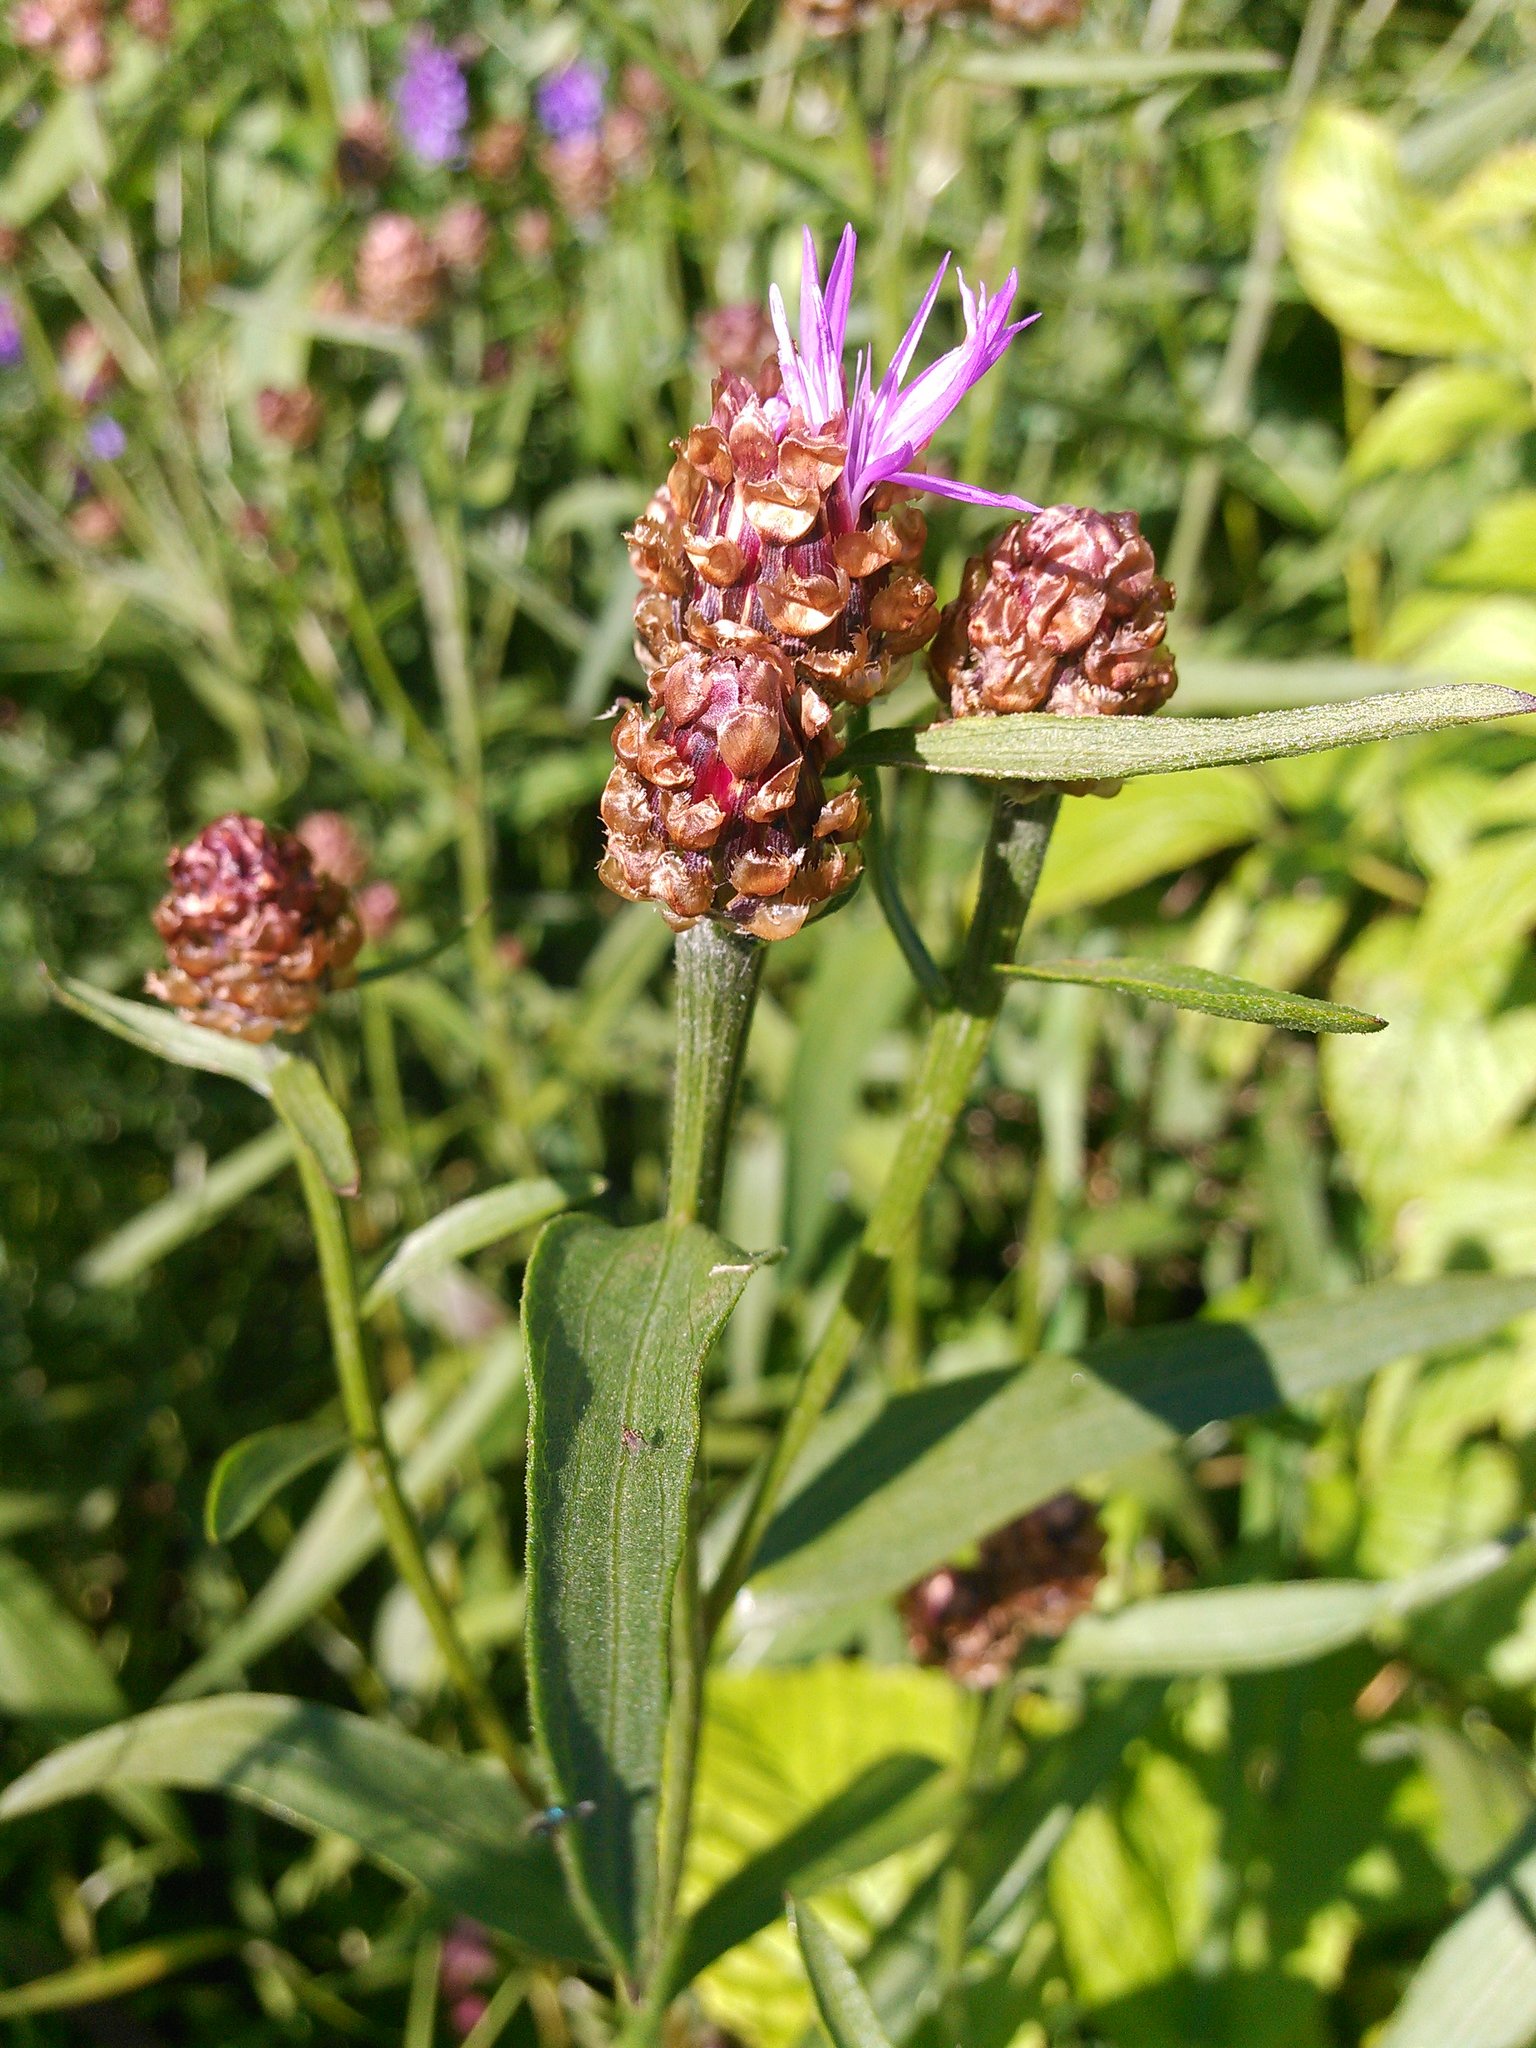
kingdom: Plantae
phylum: Tracheophyta
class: Magnoliopsida
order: Asterales
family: Asteraceae
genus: Centaurea
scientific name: Centaurea jacea
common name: Brown knapweed
